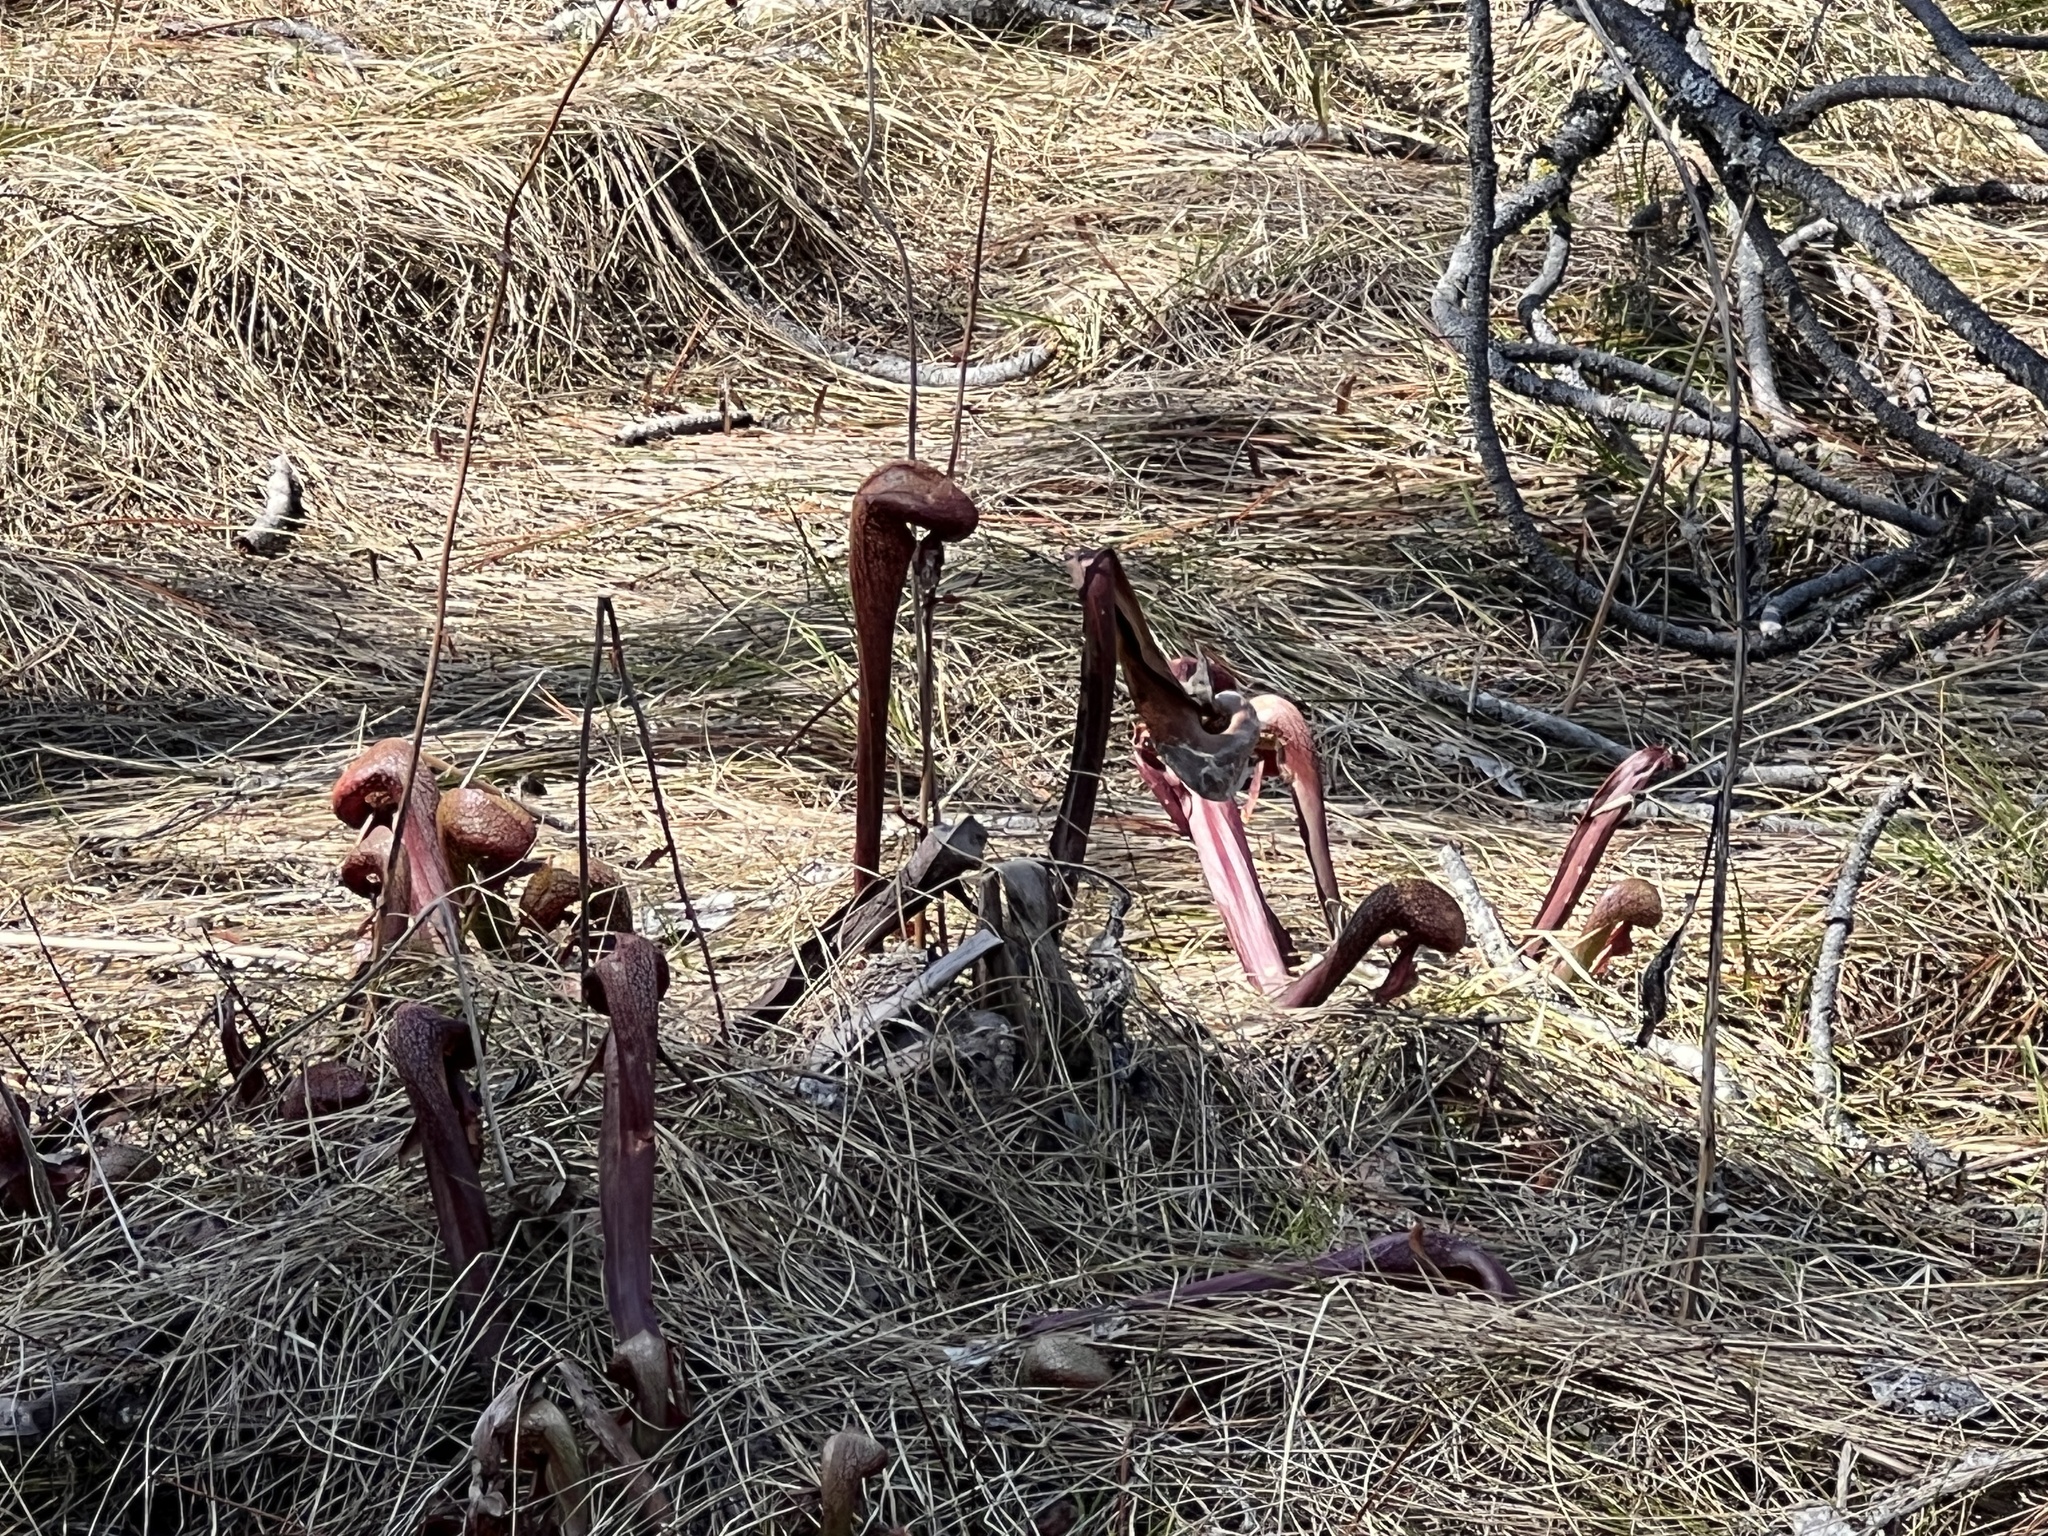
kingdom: Plantae
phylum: Tracheophyta
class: Magnoliopsida
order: Ericales
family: Sarraceniaceae
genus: Darlingtonia
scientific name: Darlingtonia californica
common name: California pitcher plant
